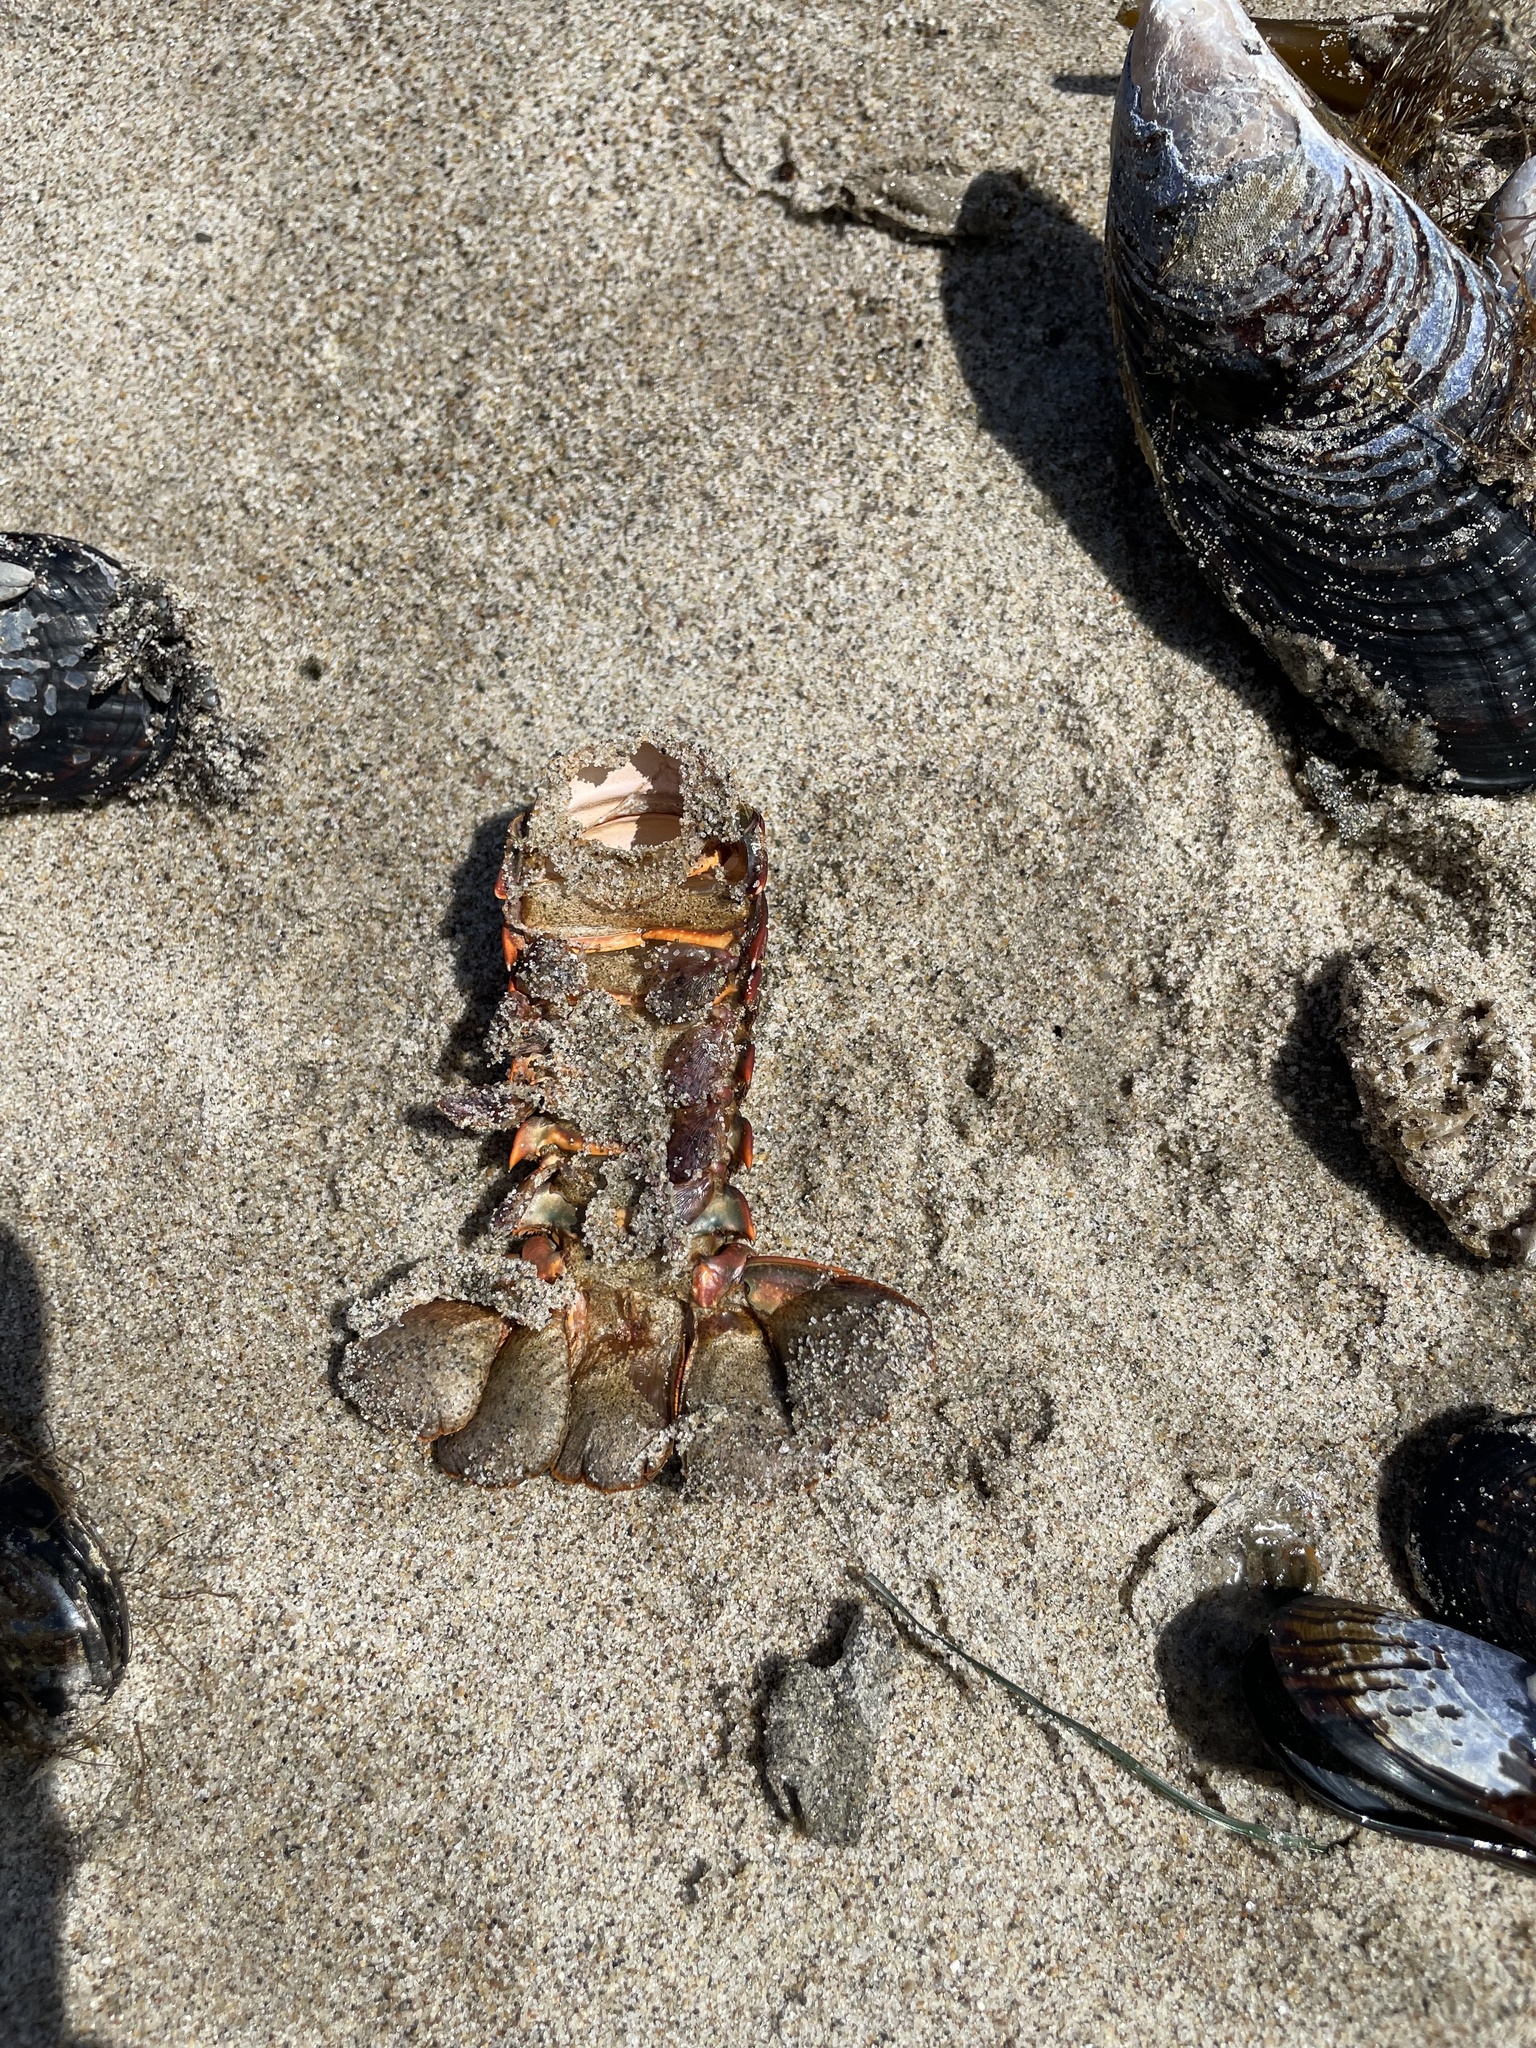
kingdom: Animalia
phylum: Arthropoda
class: Malacostraca
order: Decapoda
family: Palinuridae
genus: Panulirus
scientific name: Panulirus interruptus
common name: California spiny lobster
